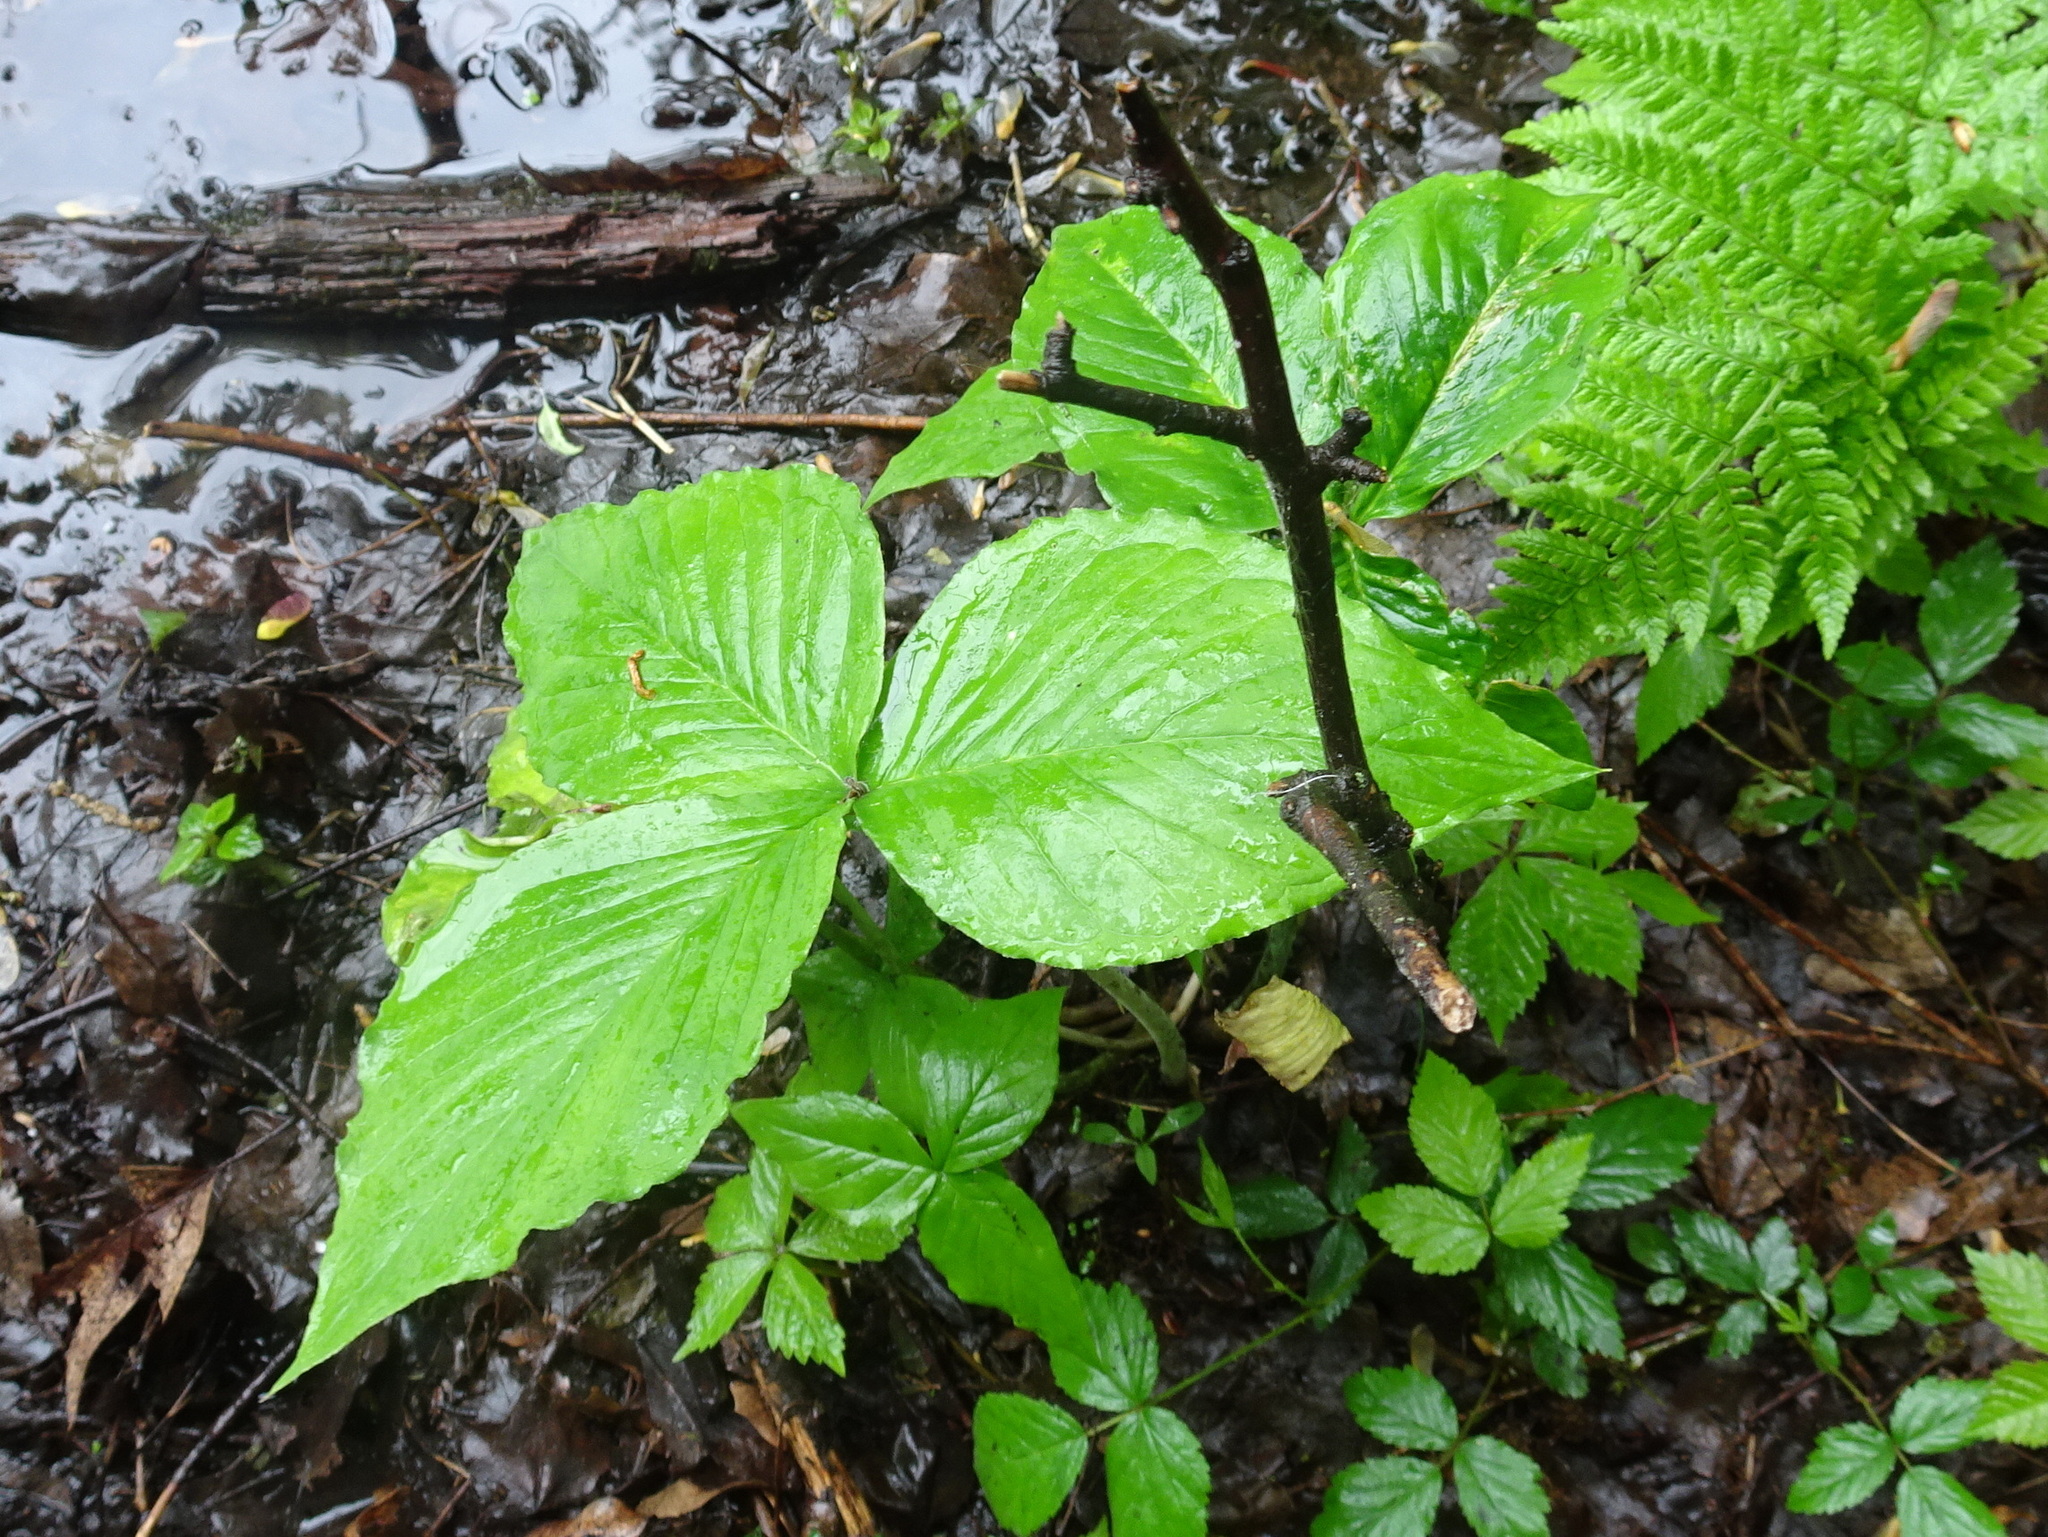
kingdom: Plantae
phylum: Tracheophyta
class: Liliopsida
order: Alismatales
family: Araceae
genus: Arisaema
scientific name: Arisaema triphyllum
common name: Jack-in-the-pulpit
